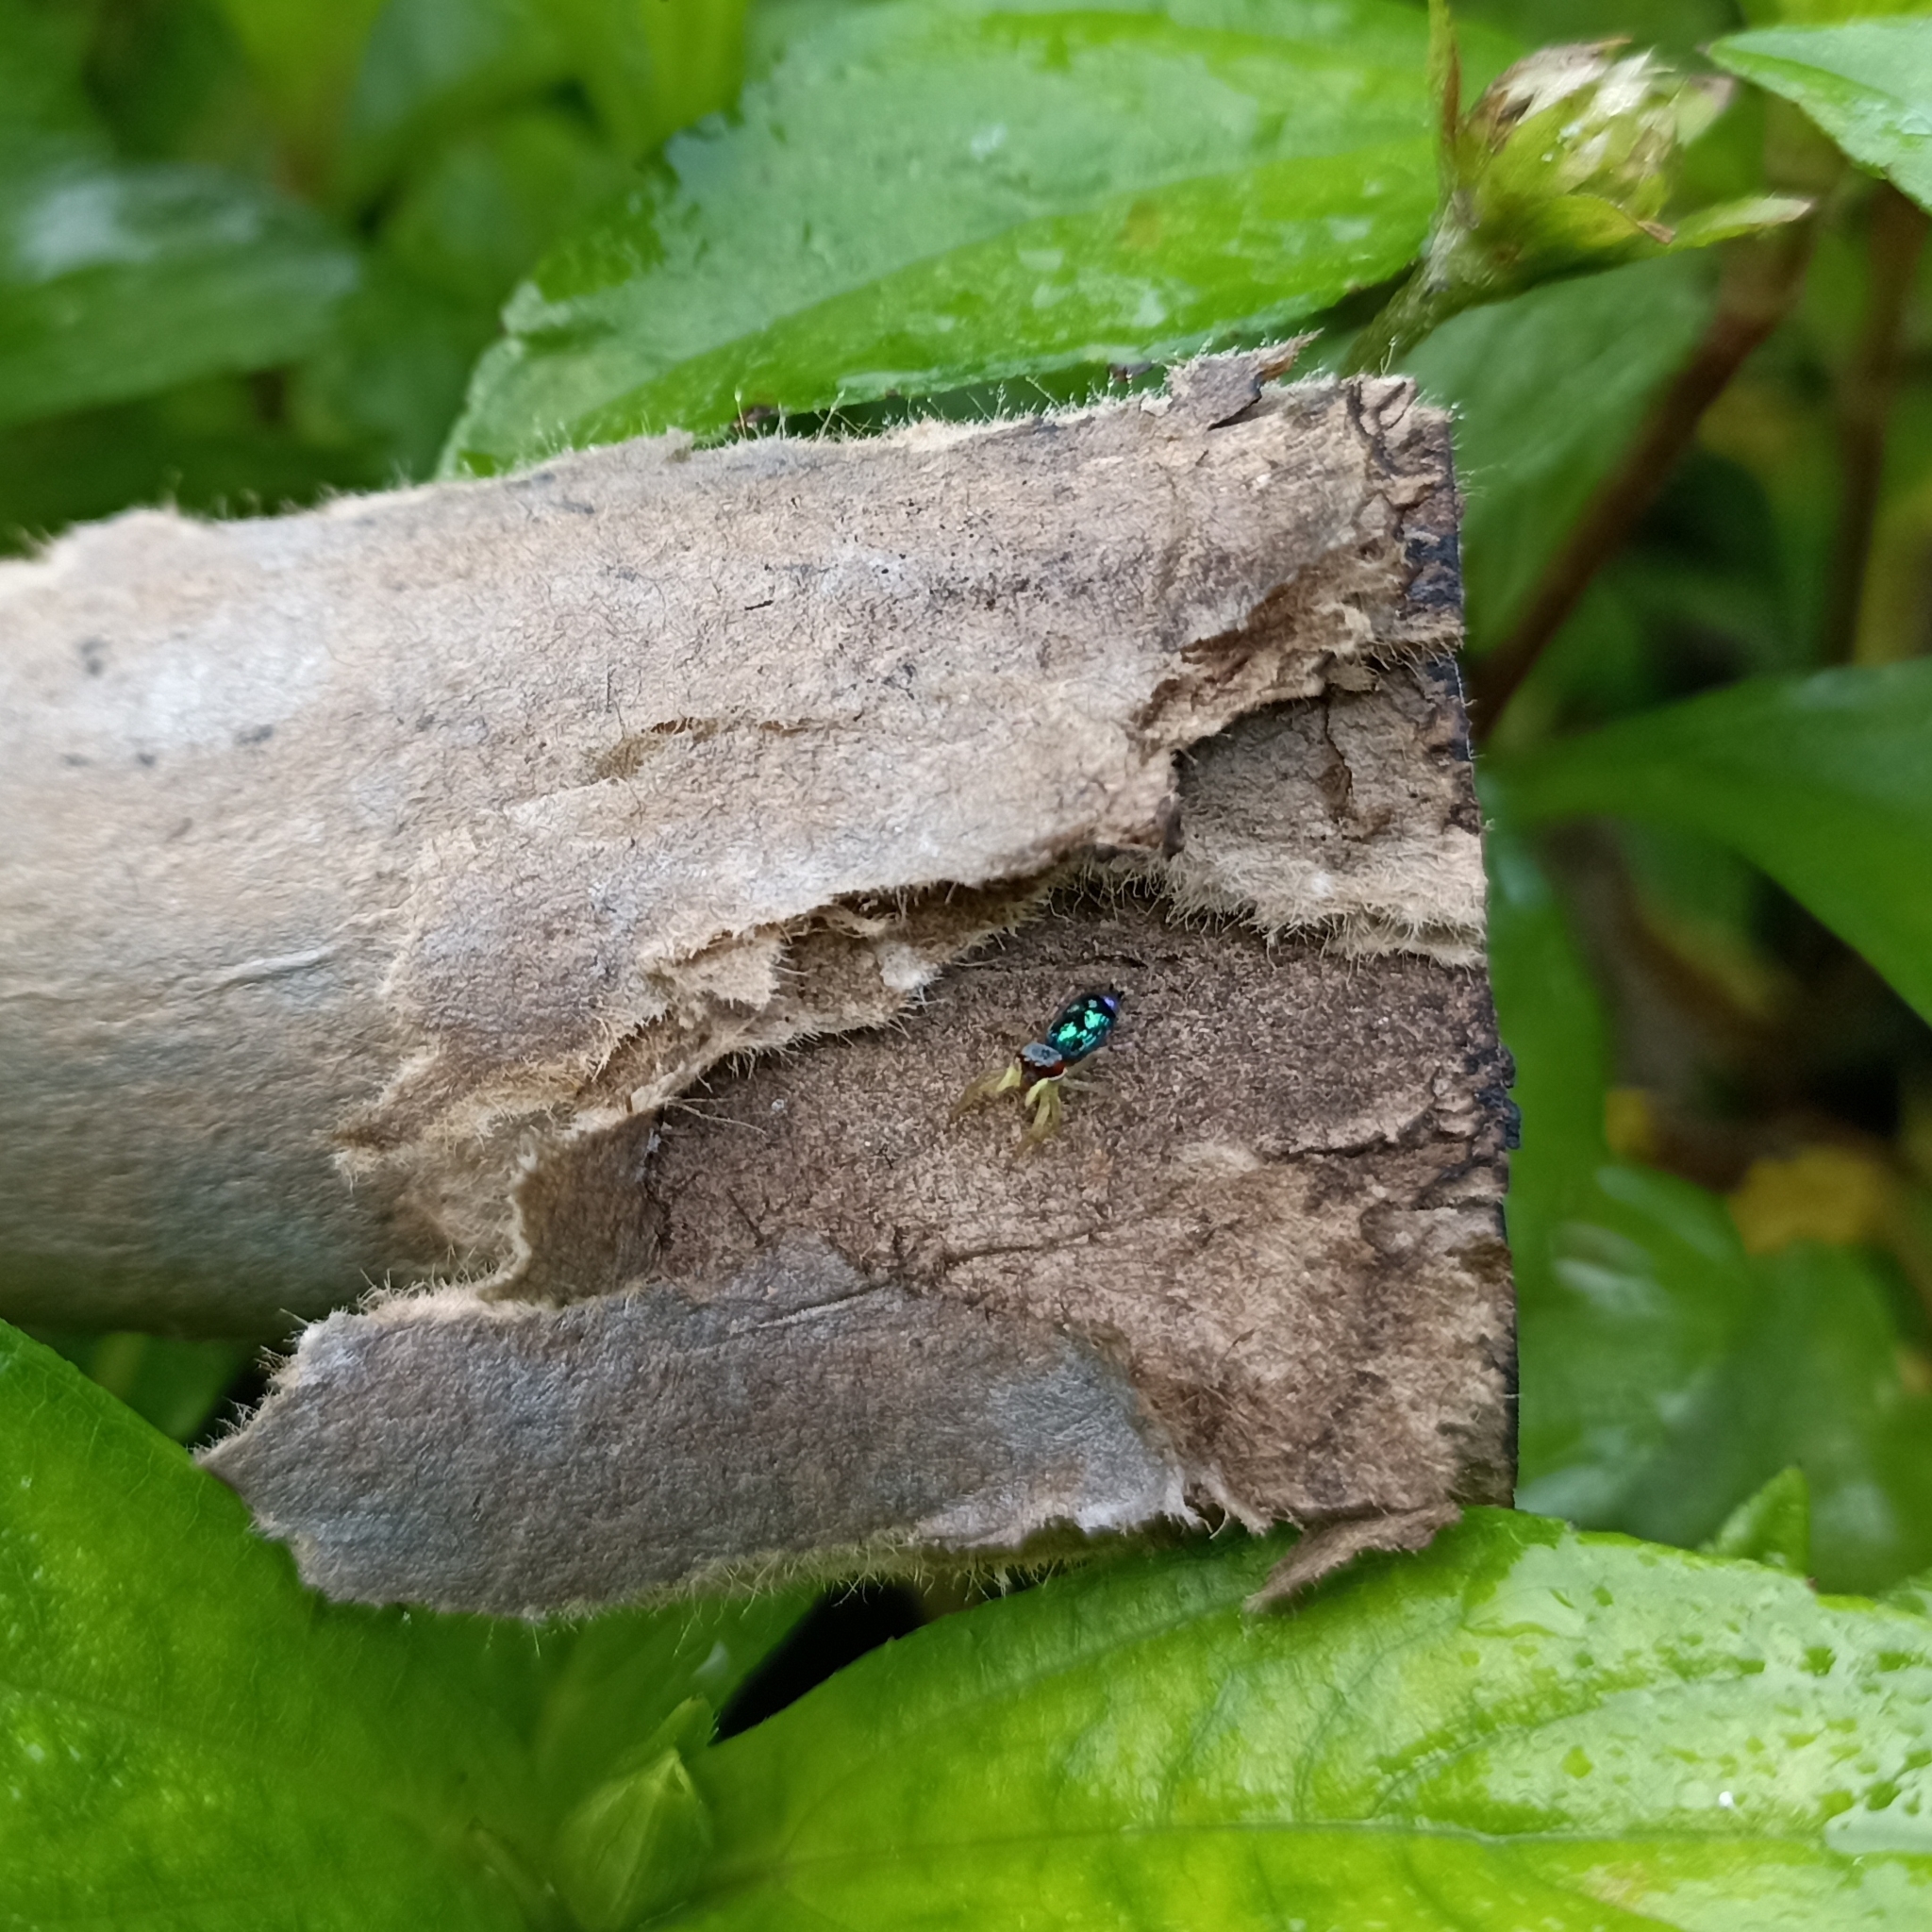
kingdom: Animalia
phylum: Arthropoda
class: Arachnida
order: Araneae
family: Salticidae
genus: Chrysilla
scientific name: Chrysilla volupe
